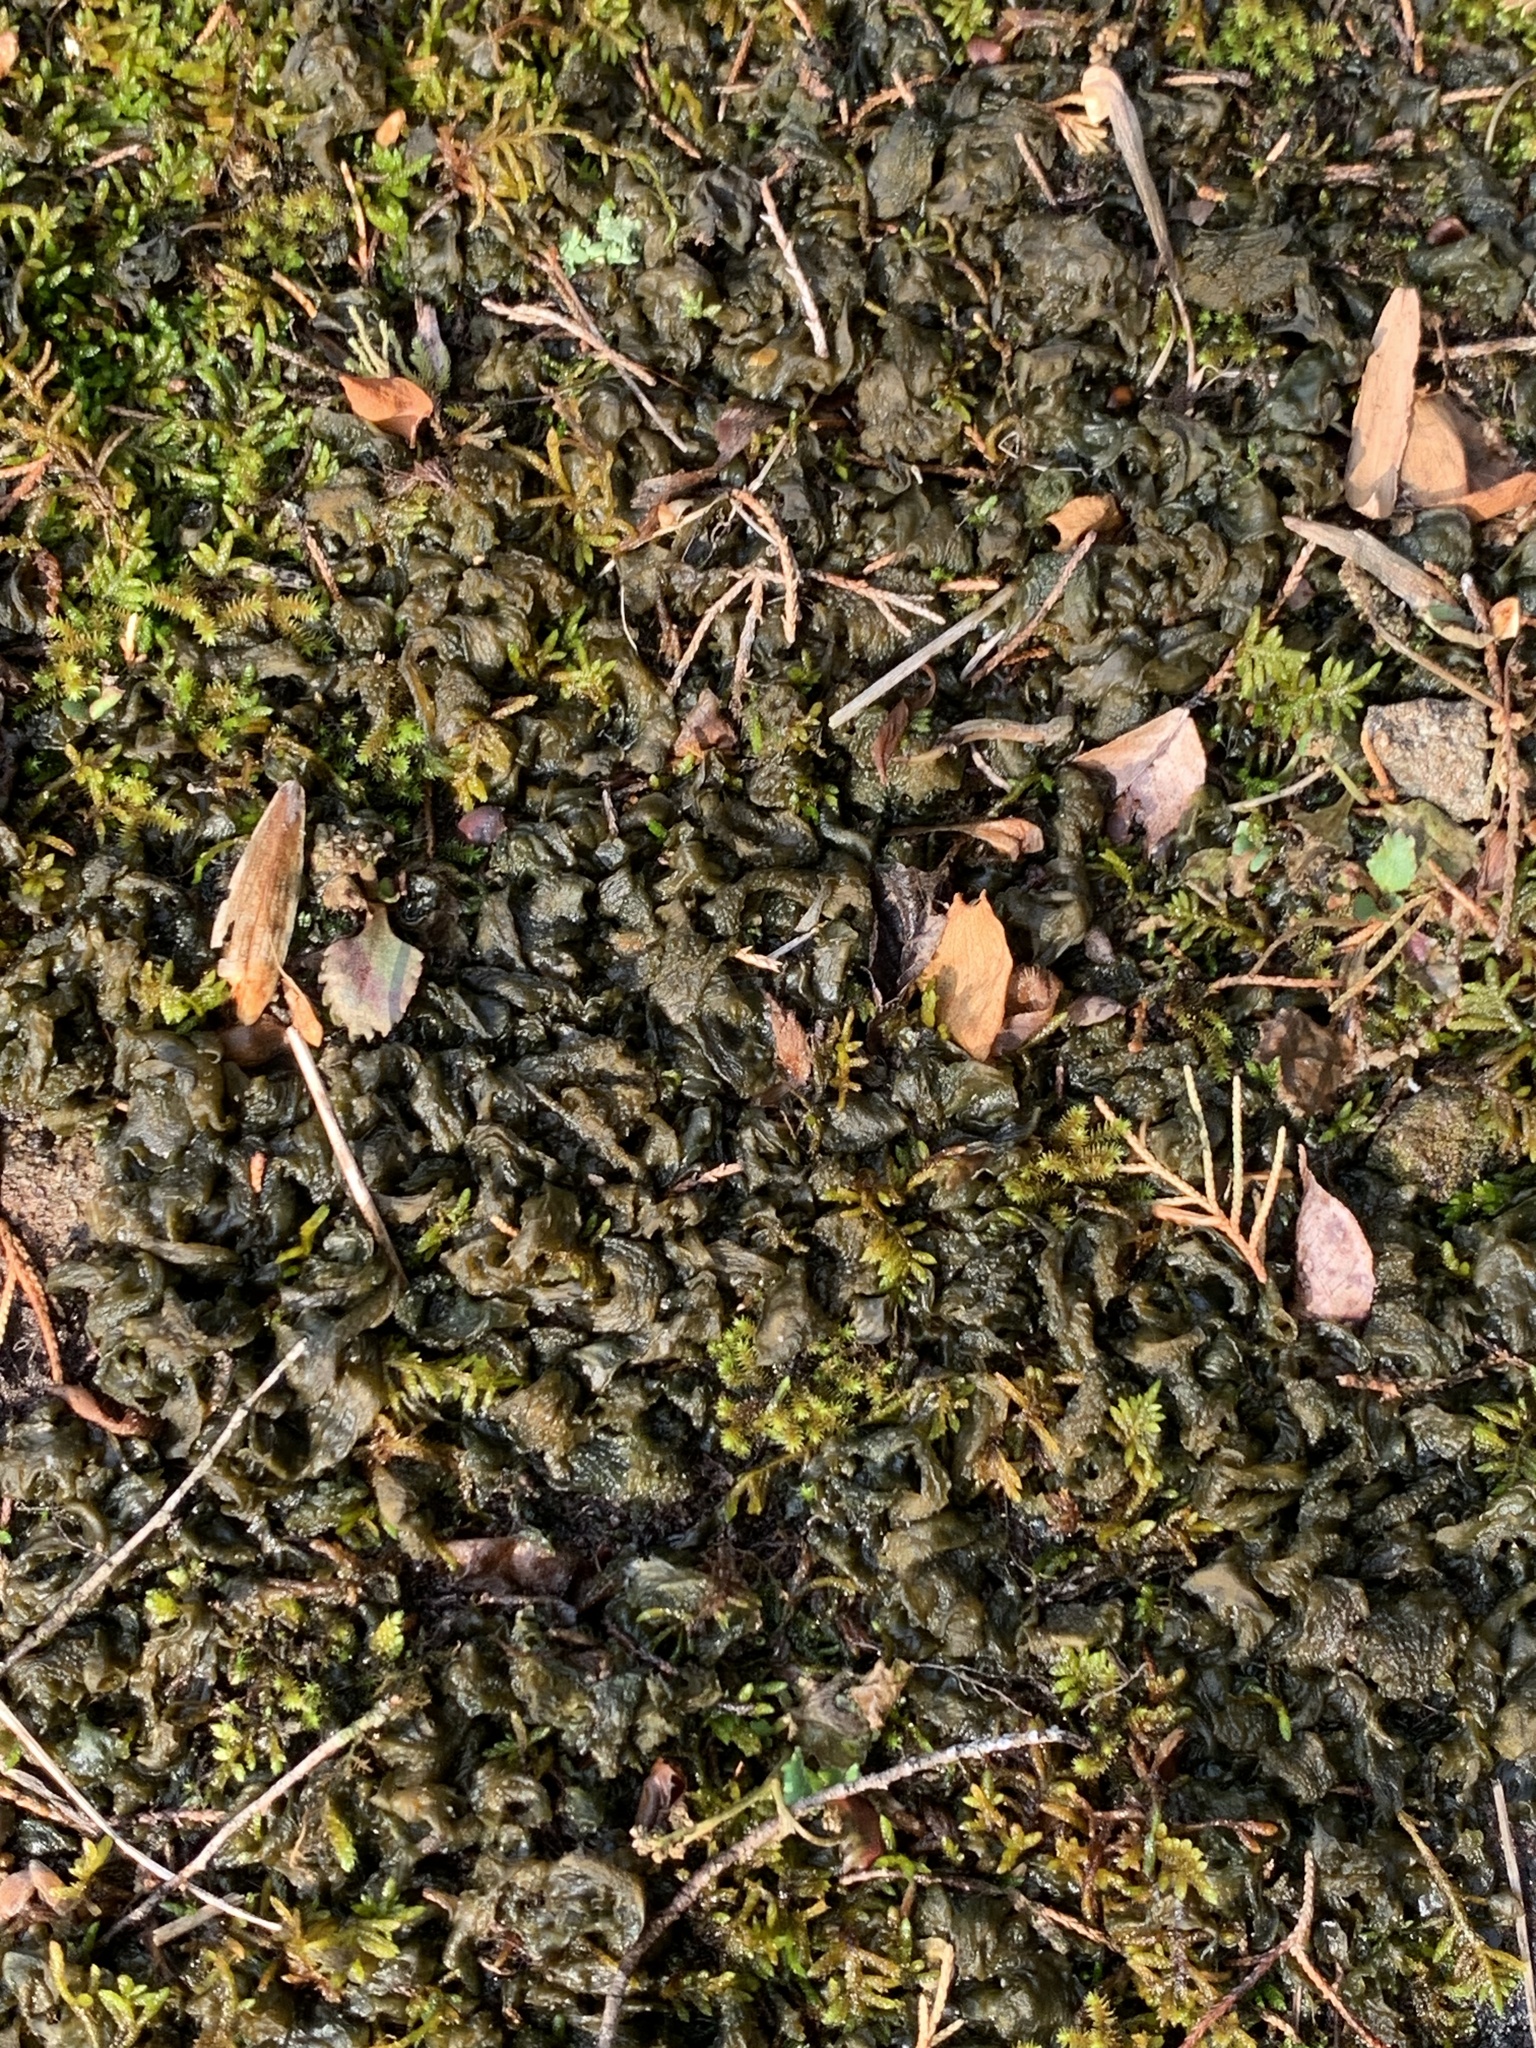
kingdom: Bacteria
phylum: Cyanobacteria
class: Cyanobacteriia
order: Cyanobacteriales
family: Nostocaceae
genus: Nostoc
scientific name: Nostoc commune
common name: Star jelly
